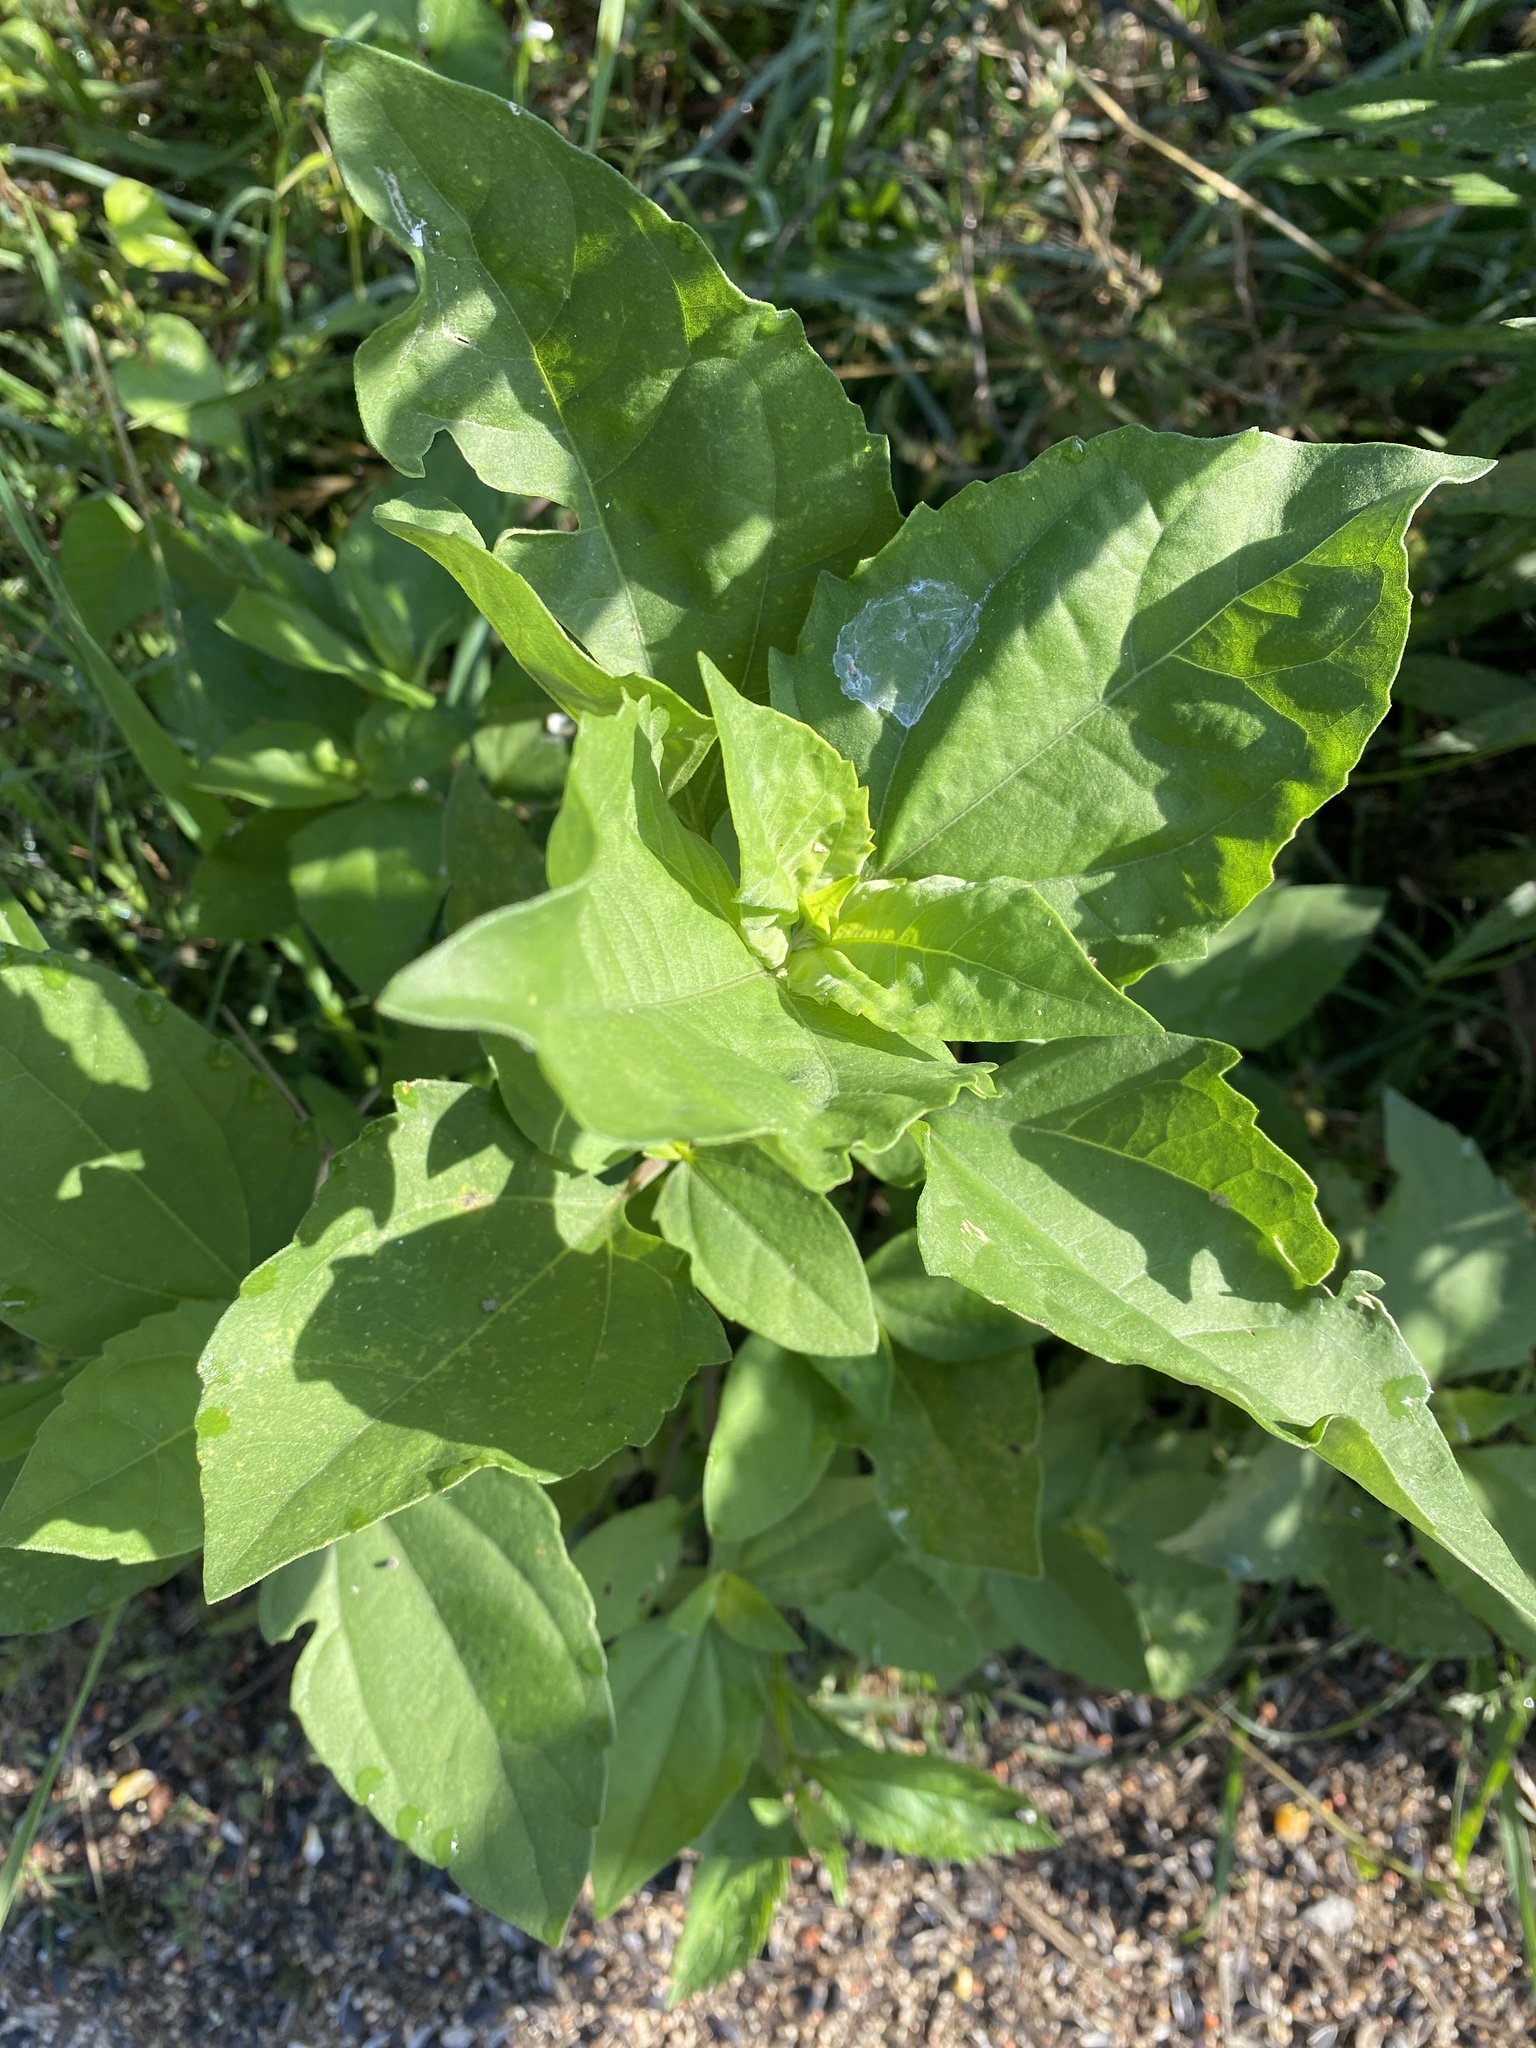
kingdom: Plantae
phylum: Tracheophyta
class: Magnoliopsida
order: Asterales
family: Asteraceae
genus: Iva
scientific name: Iva annua
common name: Marsh-elder
